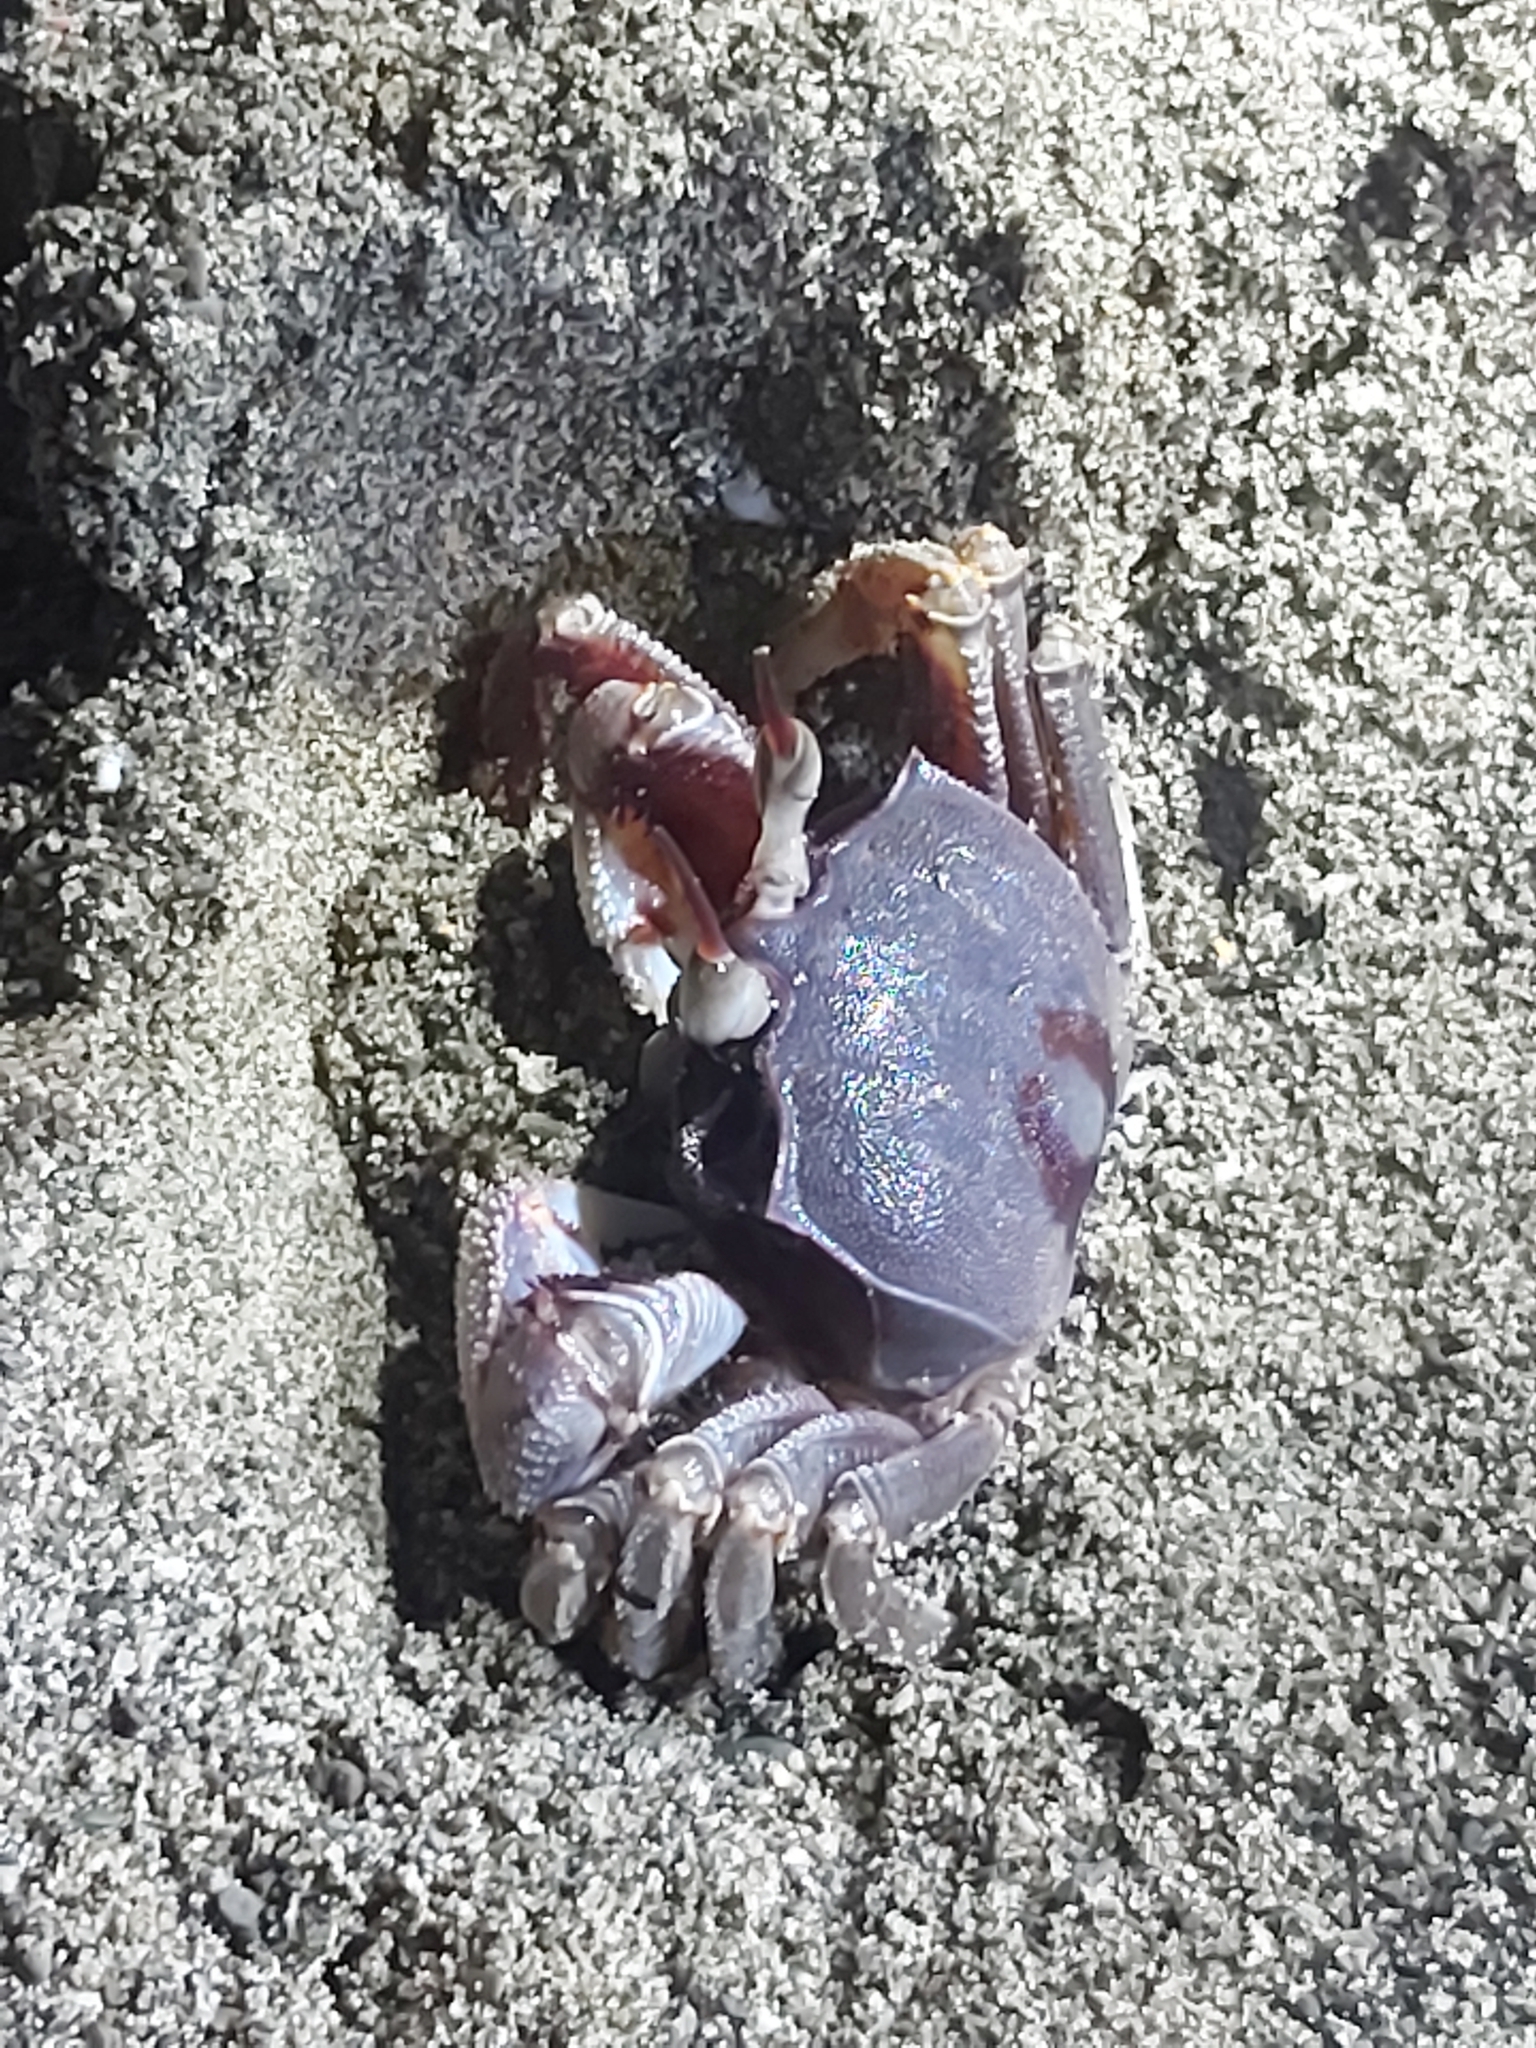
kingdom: Animalia
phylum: Arthropoda
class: Malacostraca
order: Decapoda
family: Ocypodidae
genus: Ocypode
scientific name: Ocypode ceratophthalmus
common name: Indo-pacific ghost crab
